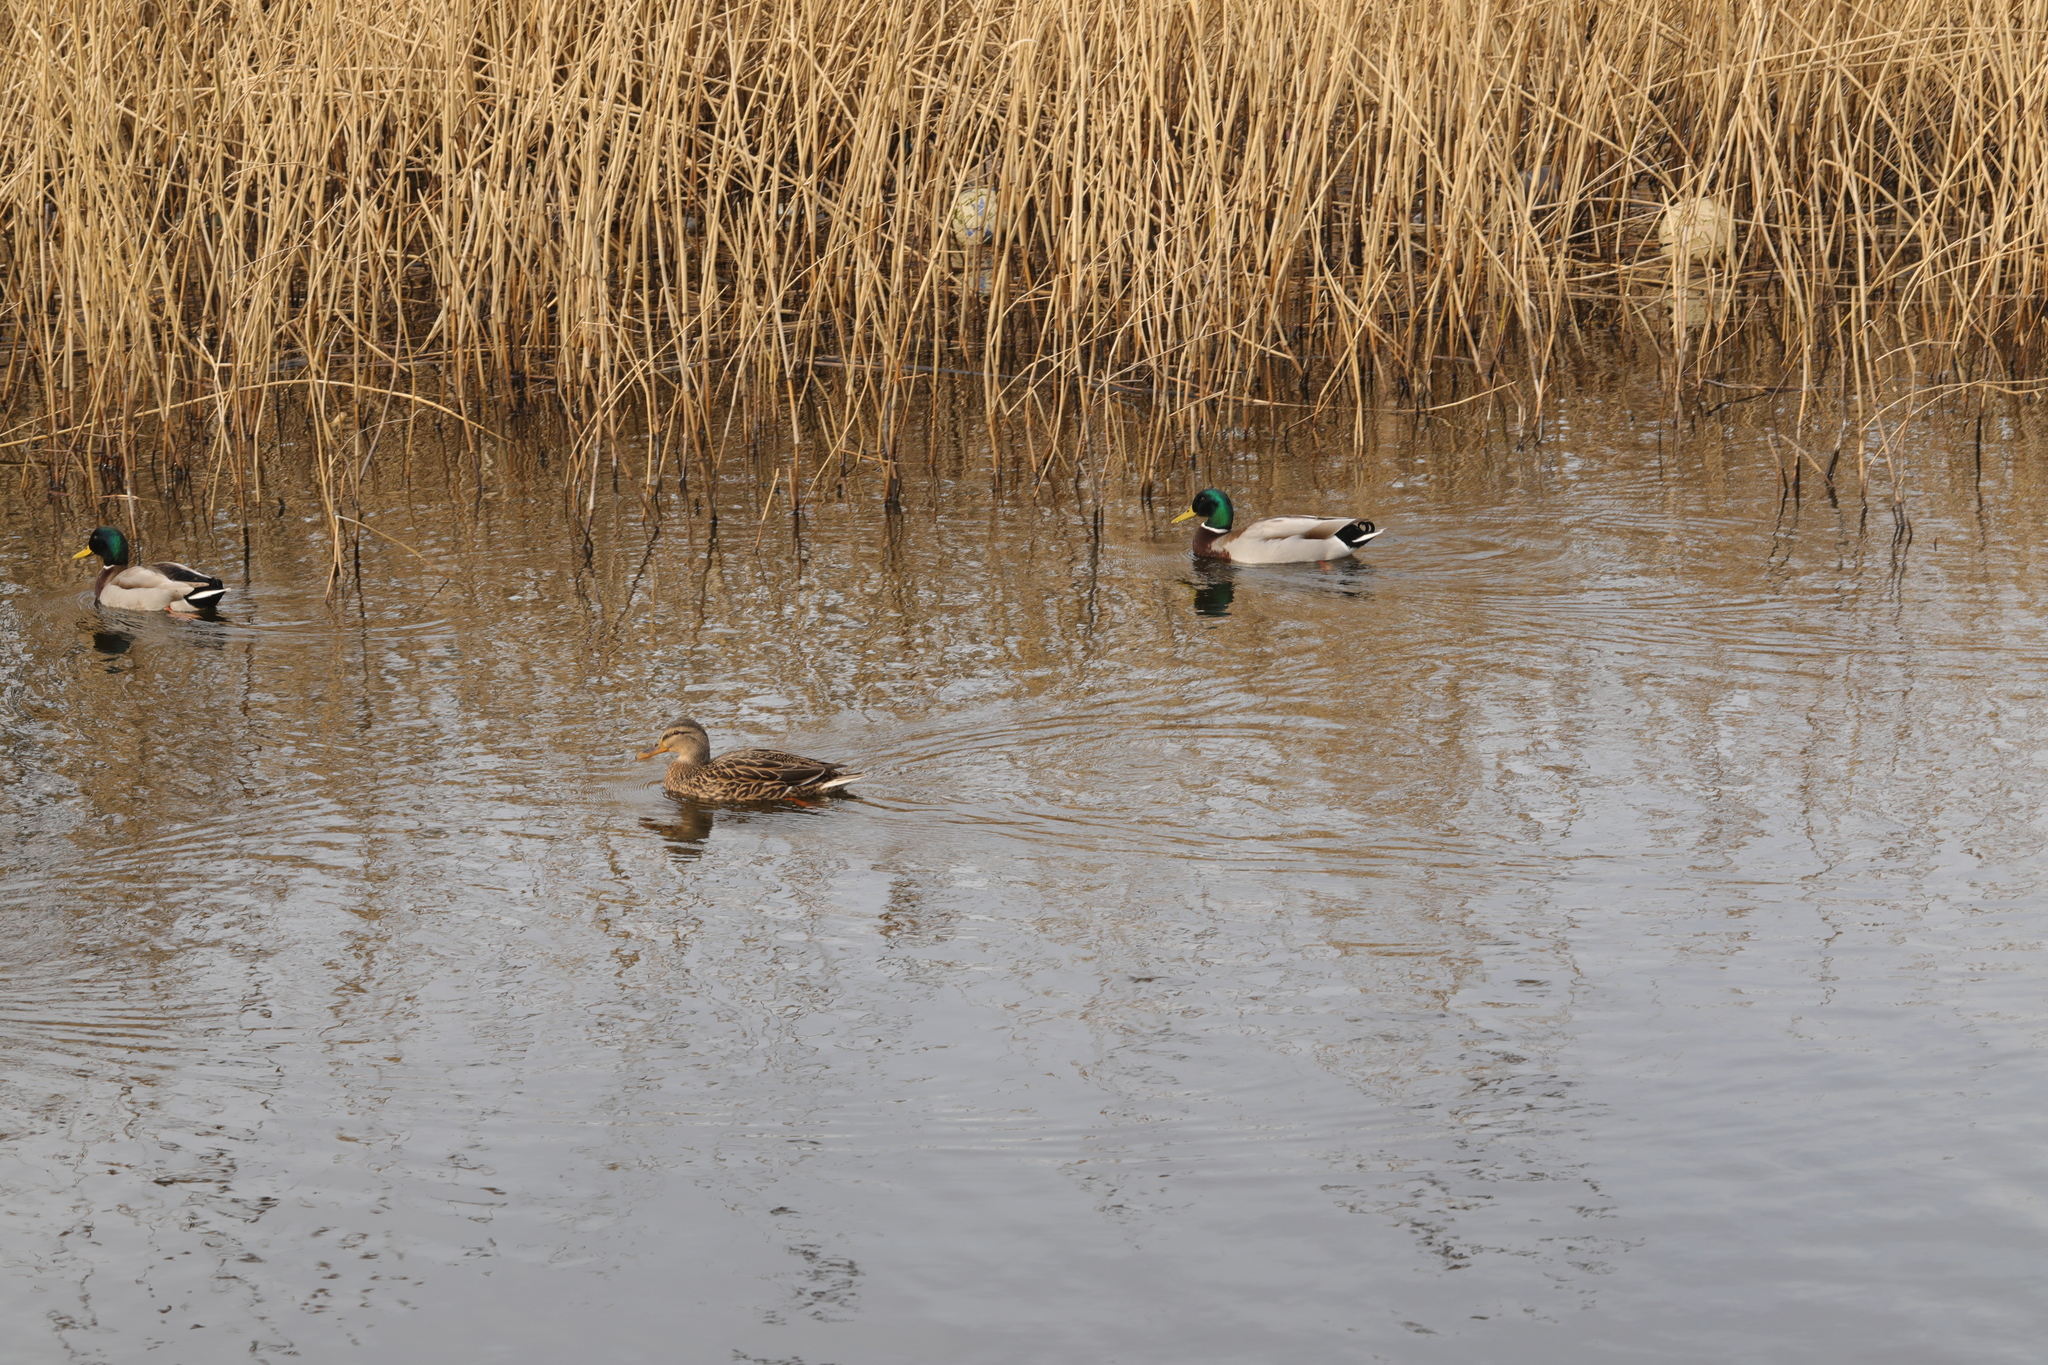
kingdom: Animalia
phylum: Chordata
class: Aves
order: Anseriformes
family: Anatidae
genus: Anas
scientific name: Anas platyrhynchos
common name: Mallard
